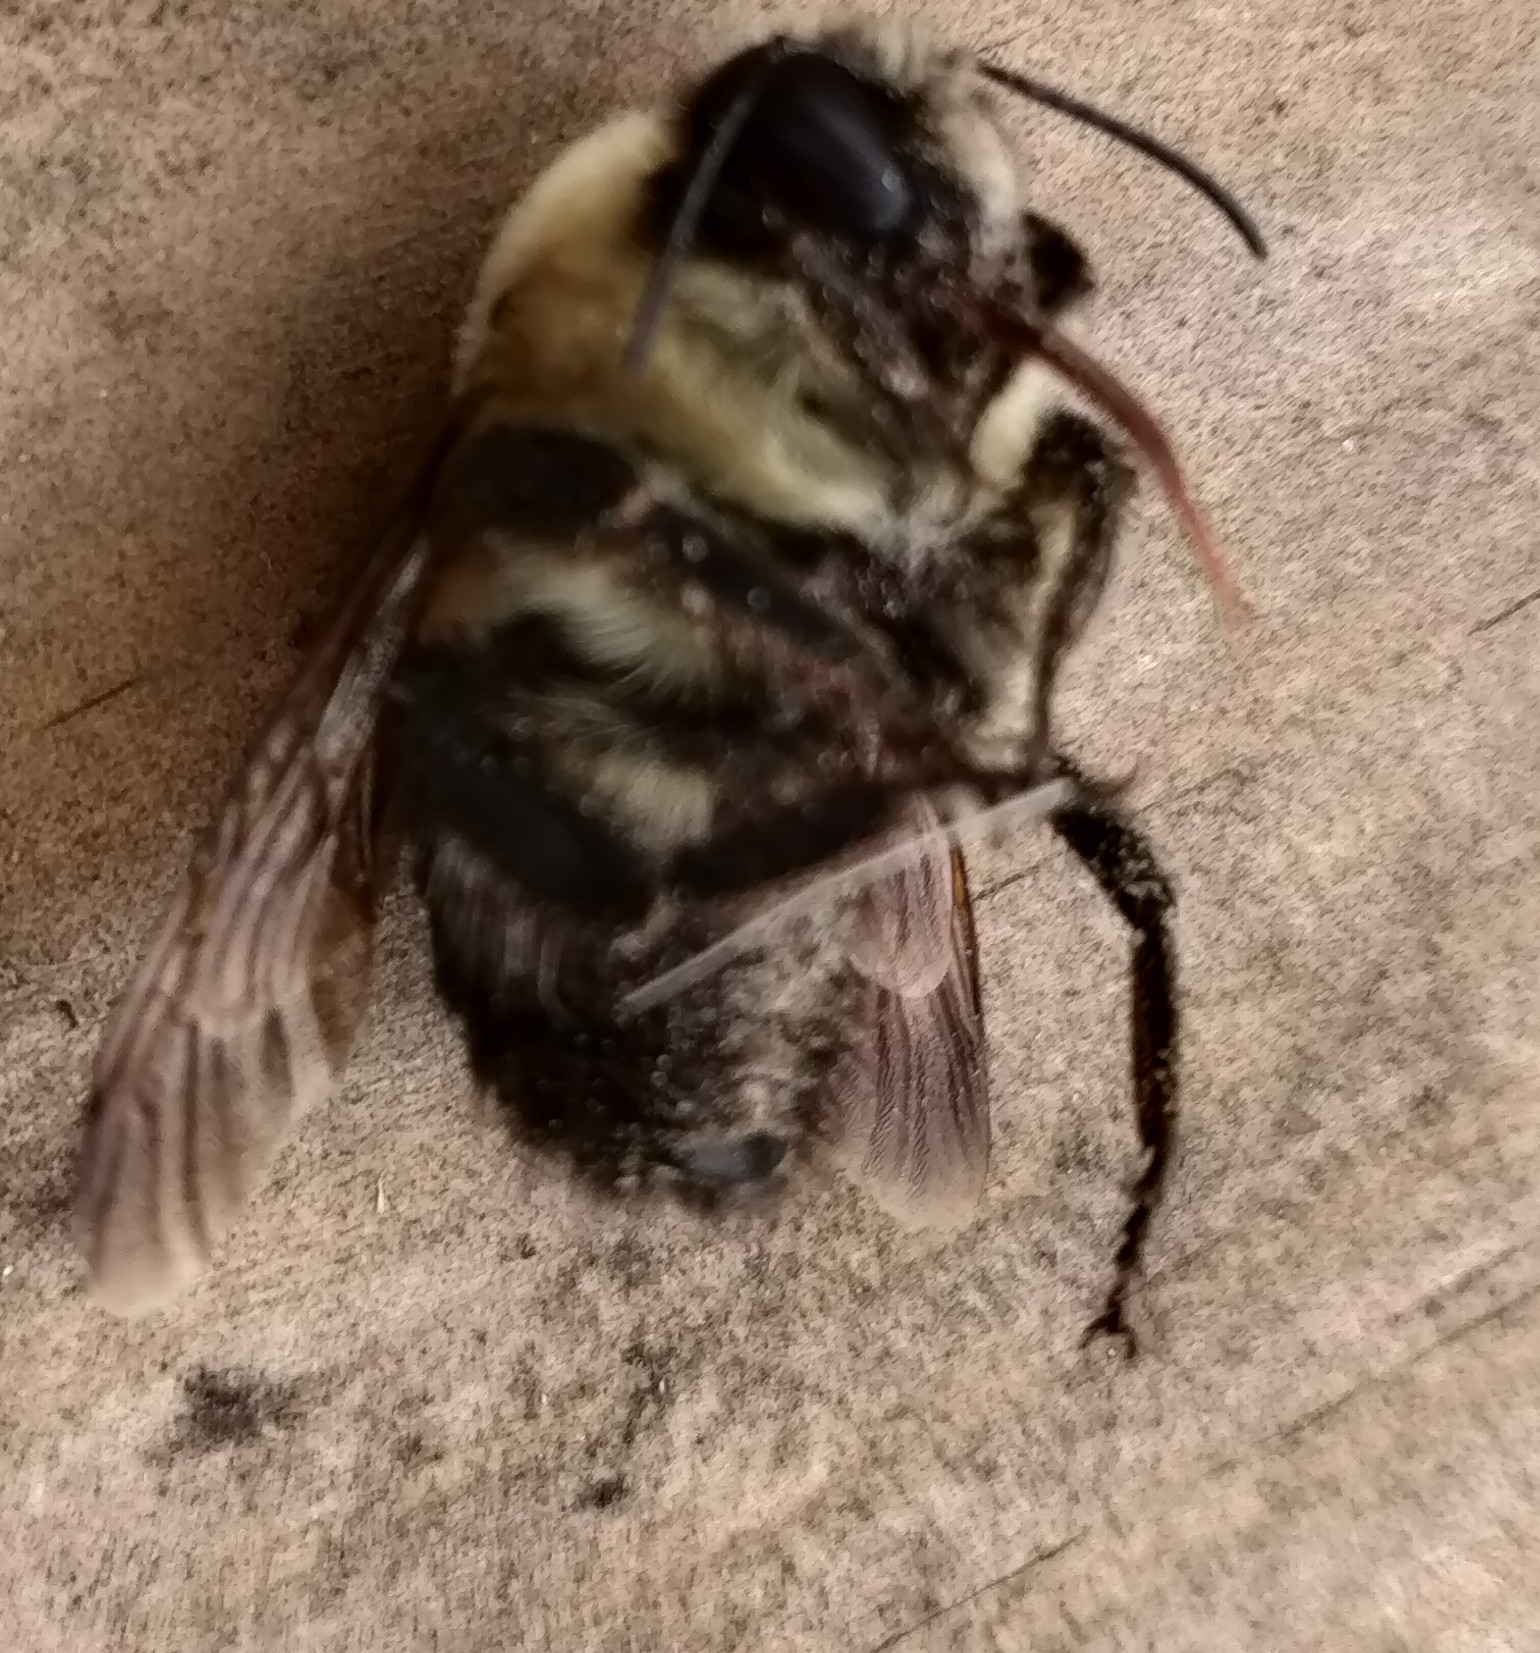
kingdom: Animalia
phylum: Arthropoda
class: Insecta
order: Hymenoptera
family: Apidae
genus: Bombus
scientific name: Bombus griseocollis
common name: Brown-belted bumble bee
